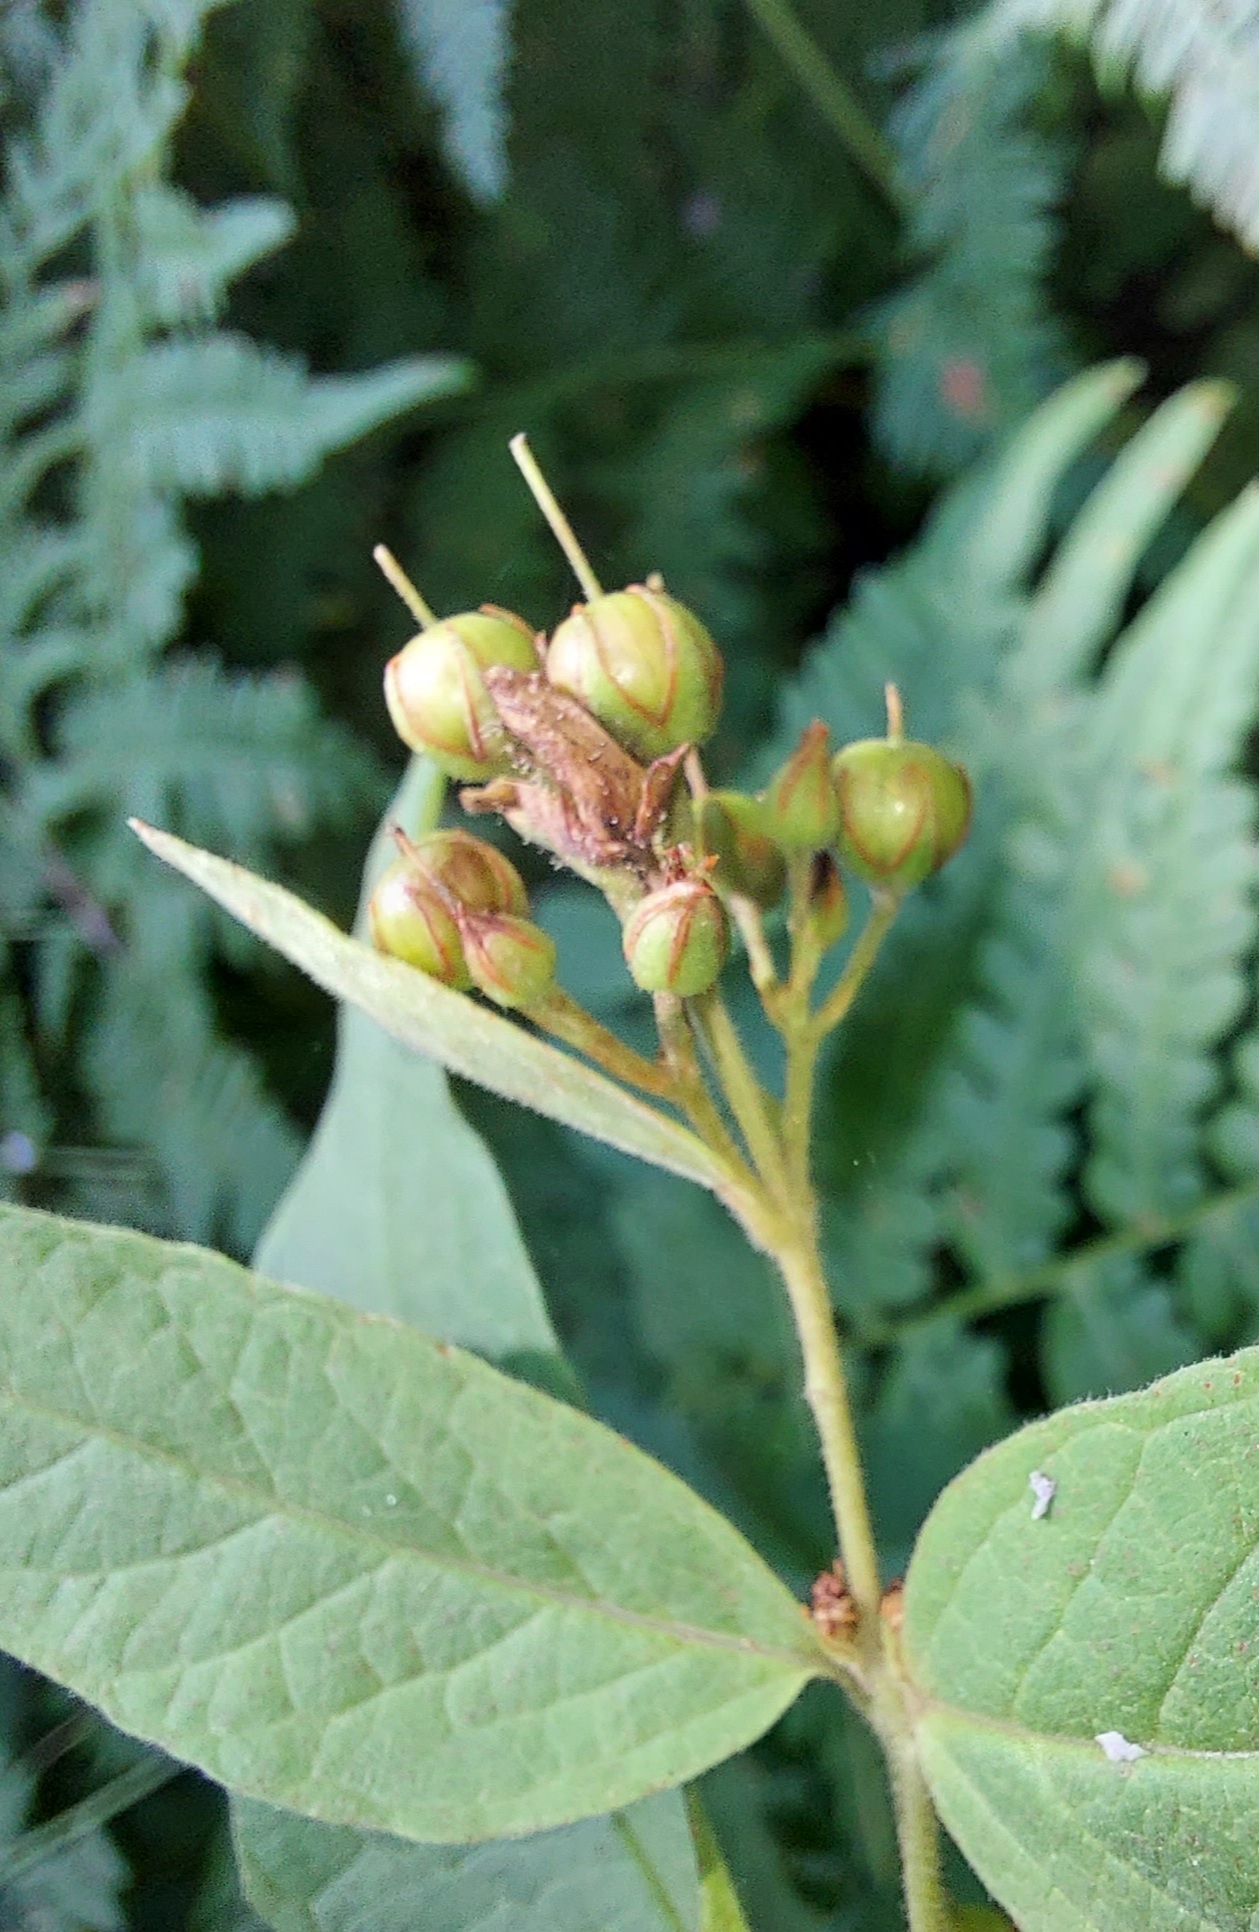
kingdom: Plantae
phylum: Tracheophyta
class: Magnoliopsida
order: Ericales
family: Primulaceae
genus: Lysimachia
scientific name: Lysimachia vulgaris
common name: Yellow loosestrife
